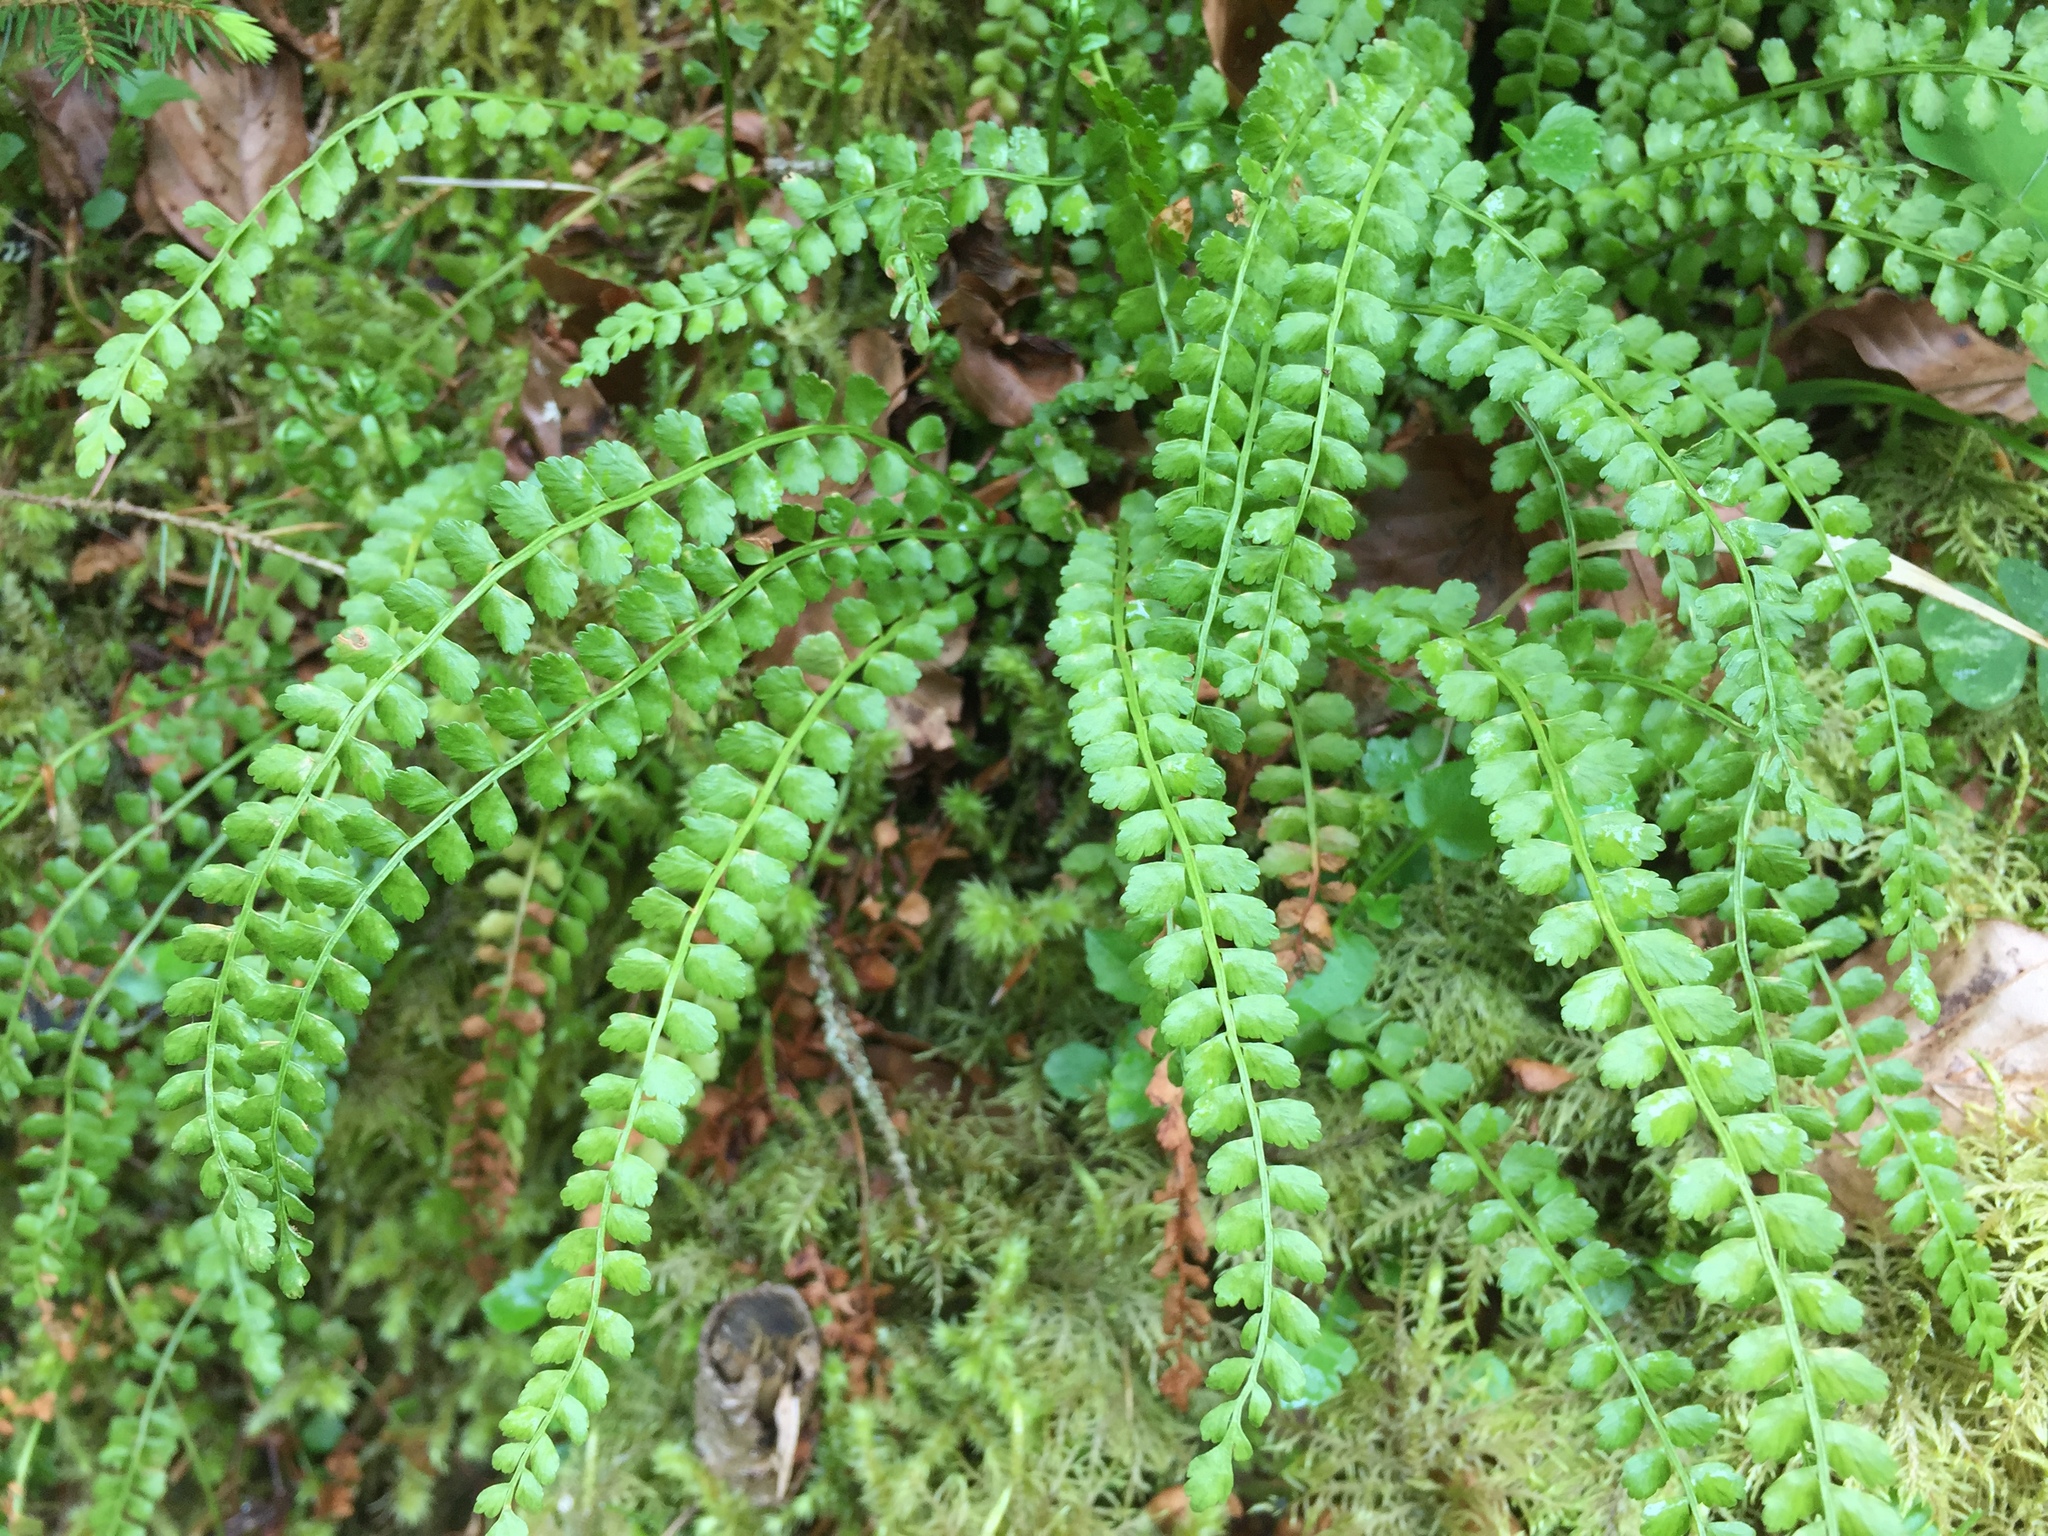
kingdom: Plantae
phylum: Tracheophyta
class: Polypodiopsida
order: Polypodiales
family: Aspleniaceae
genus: Asplenium
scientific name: Asplenium viride
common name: Green spleenwort
